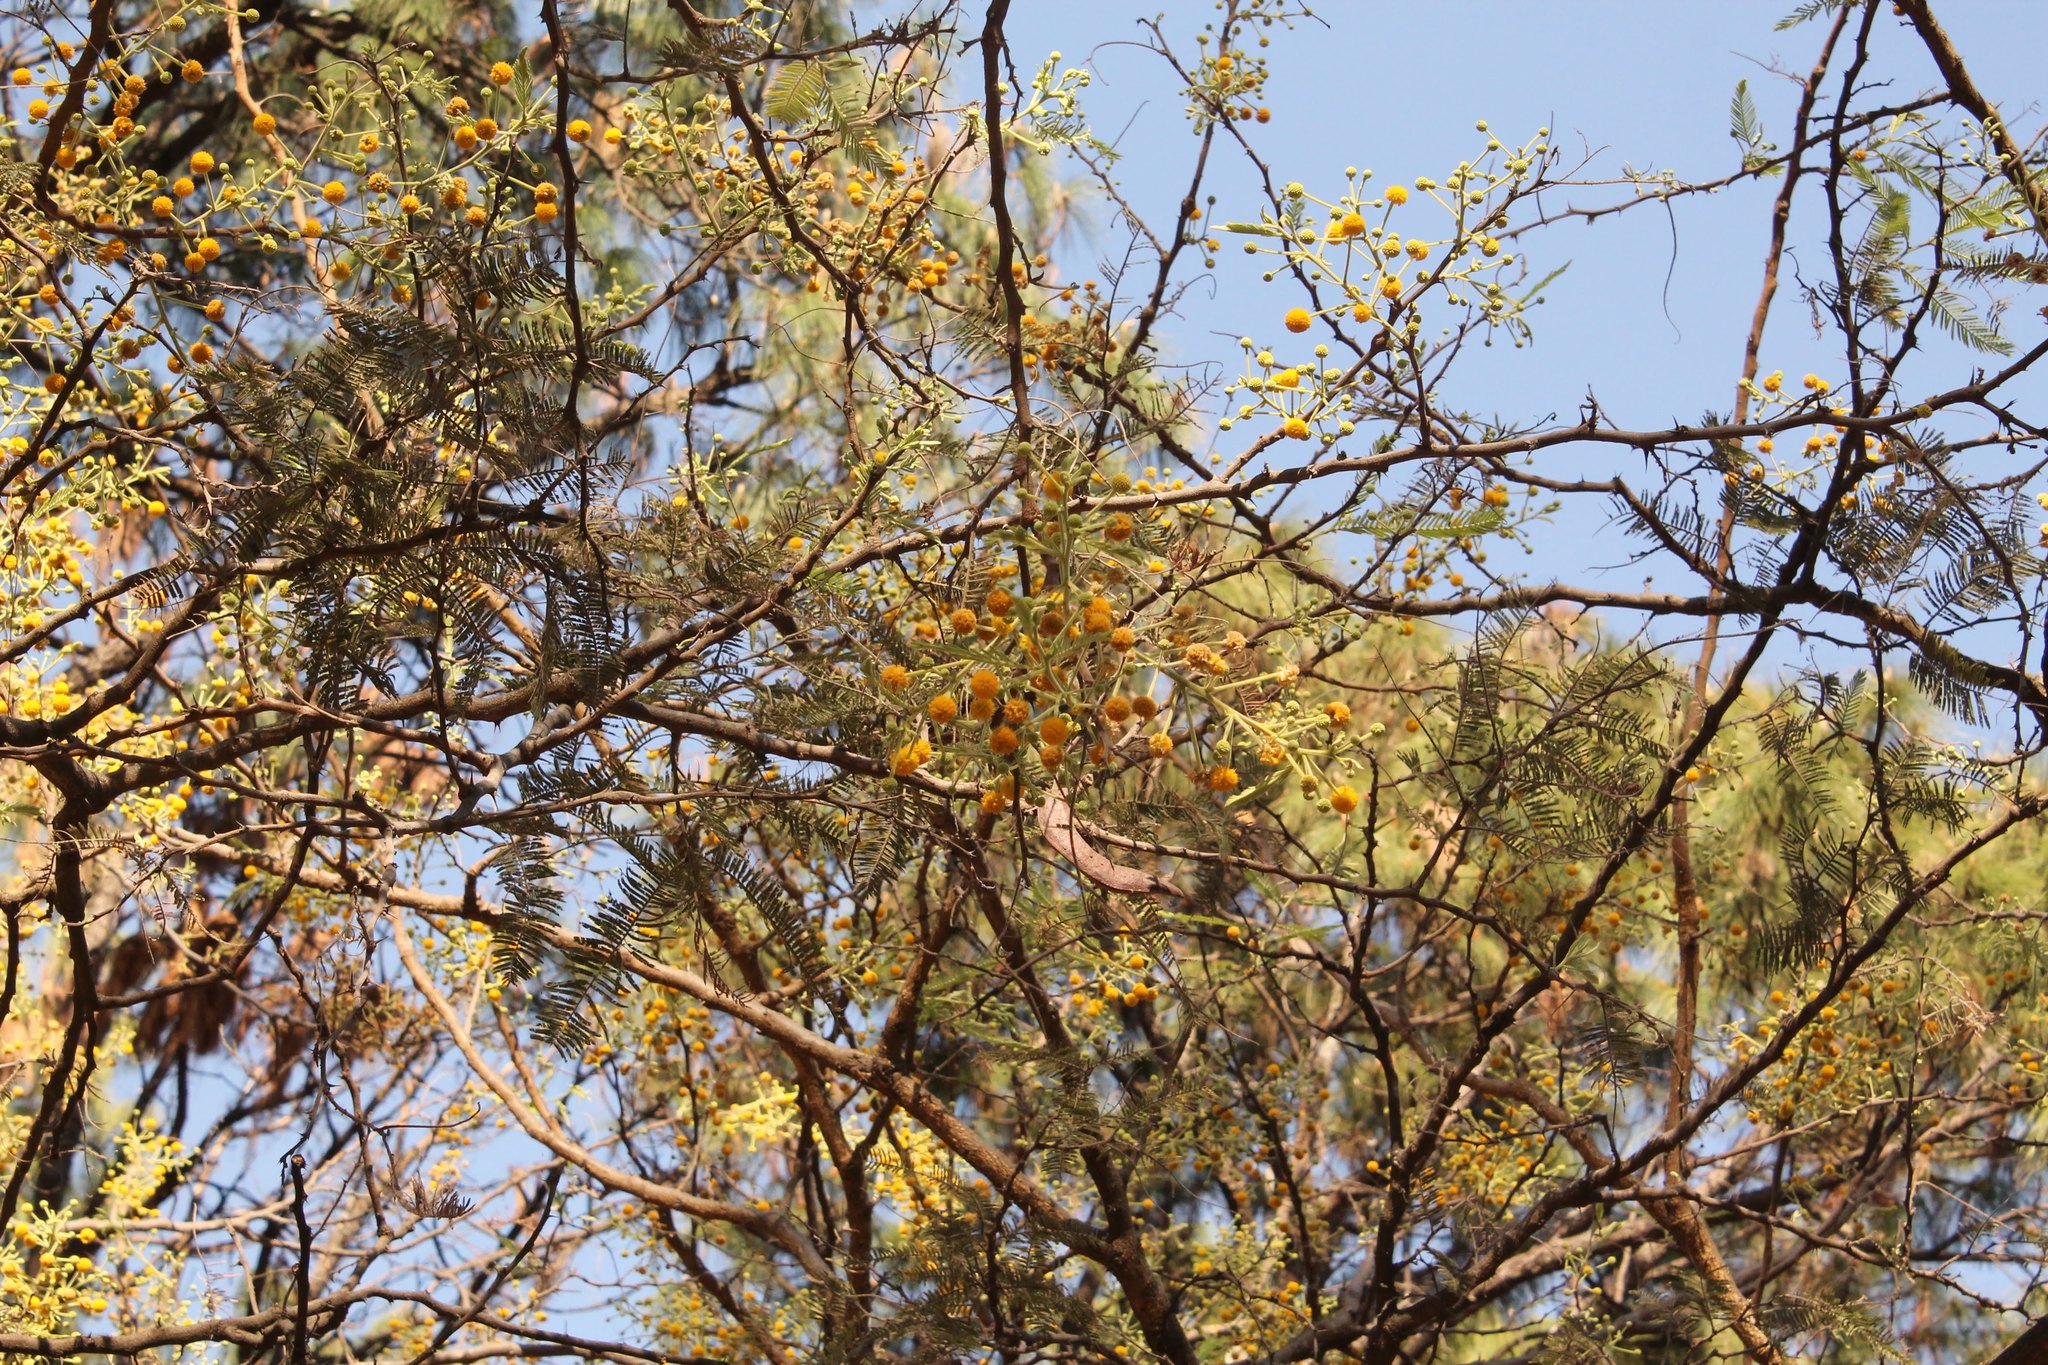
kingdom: Plantae
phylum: Tracheophyta
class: Magnoliopsida
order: Fabales
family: Fabaceae
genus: Vachellia
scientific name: Vachellia pennatula
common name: Fern-leaf acacia
